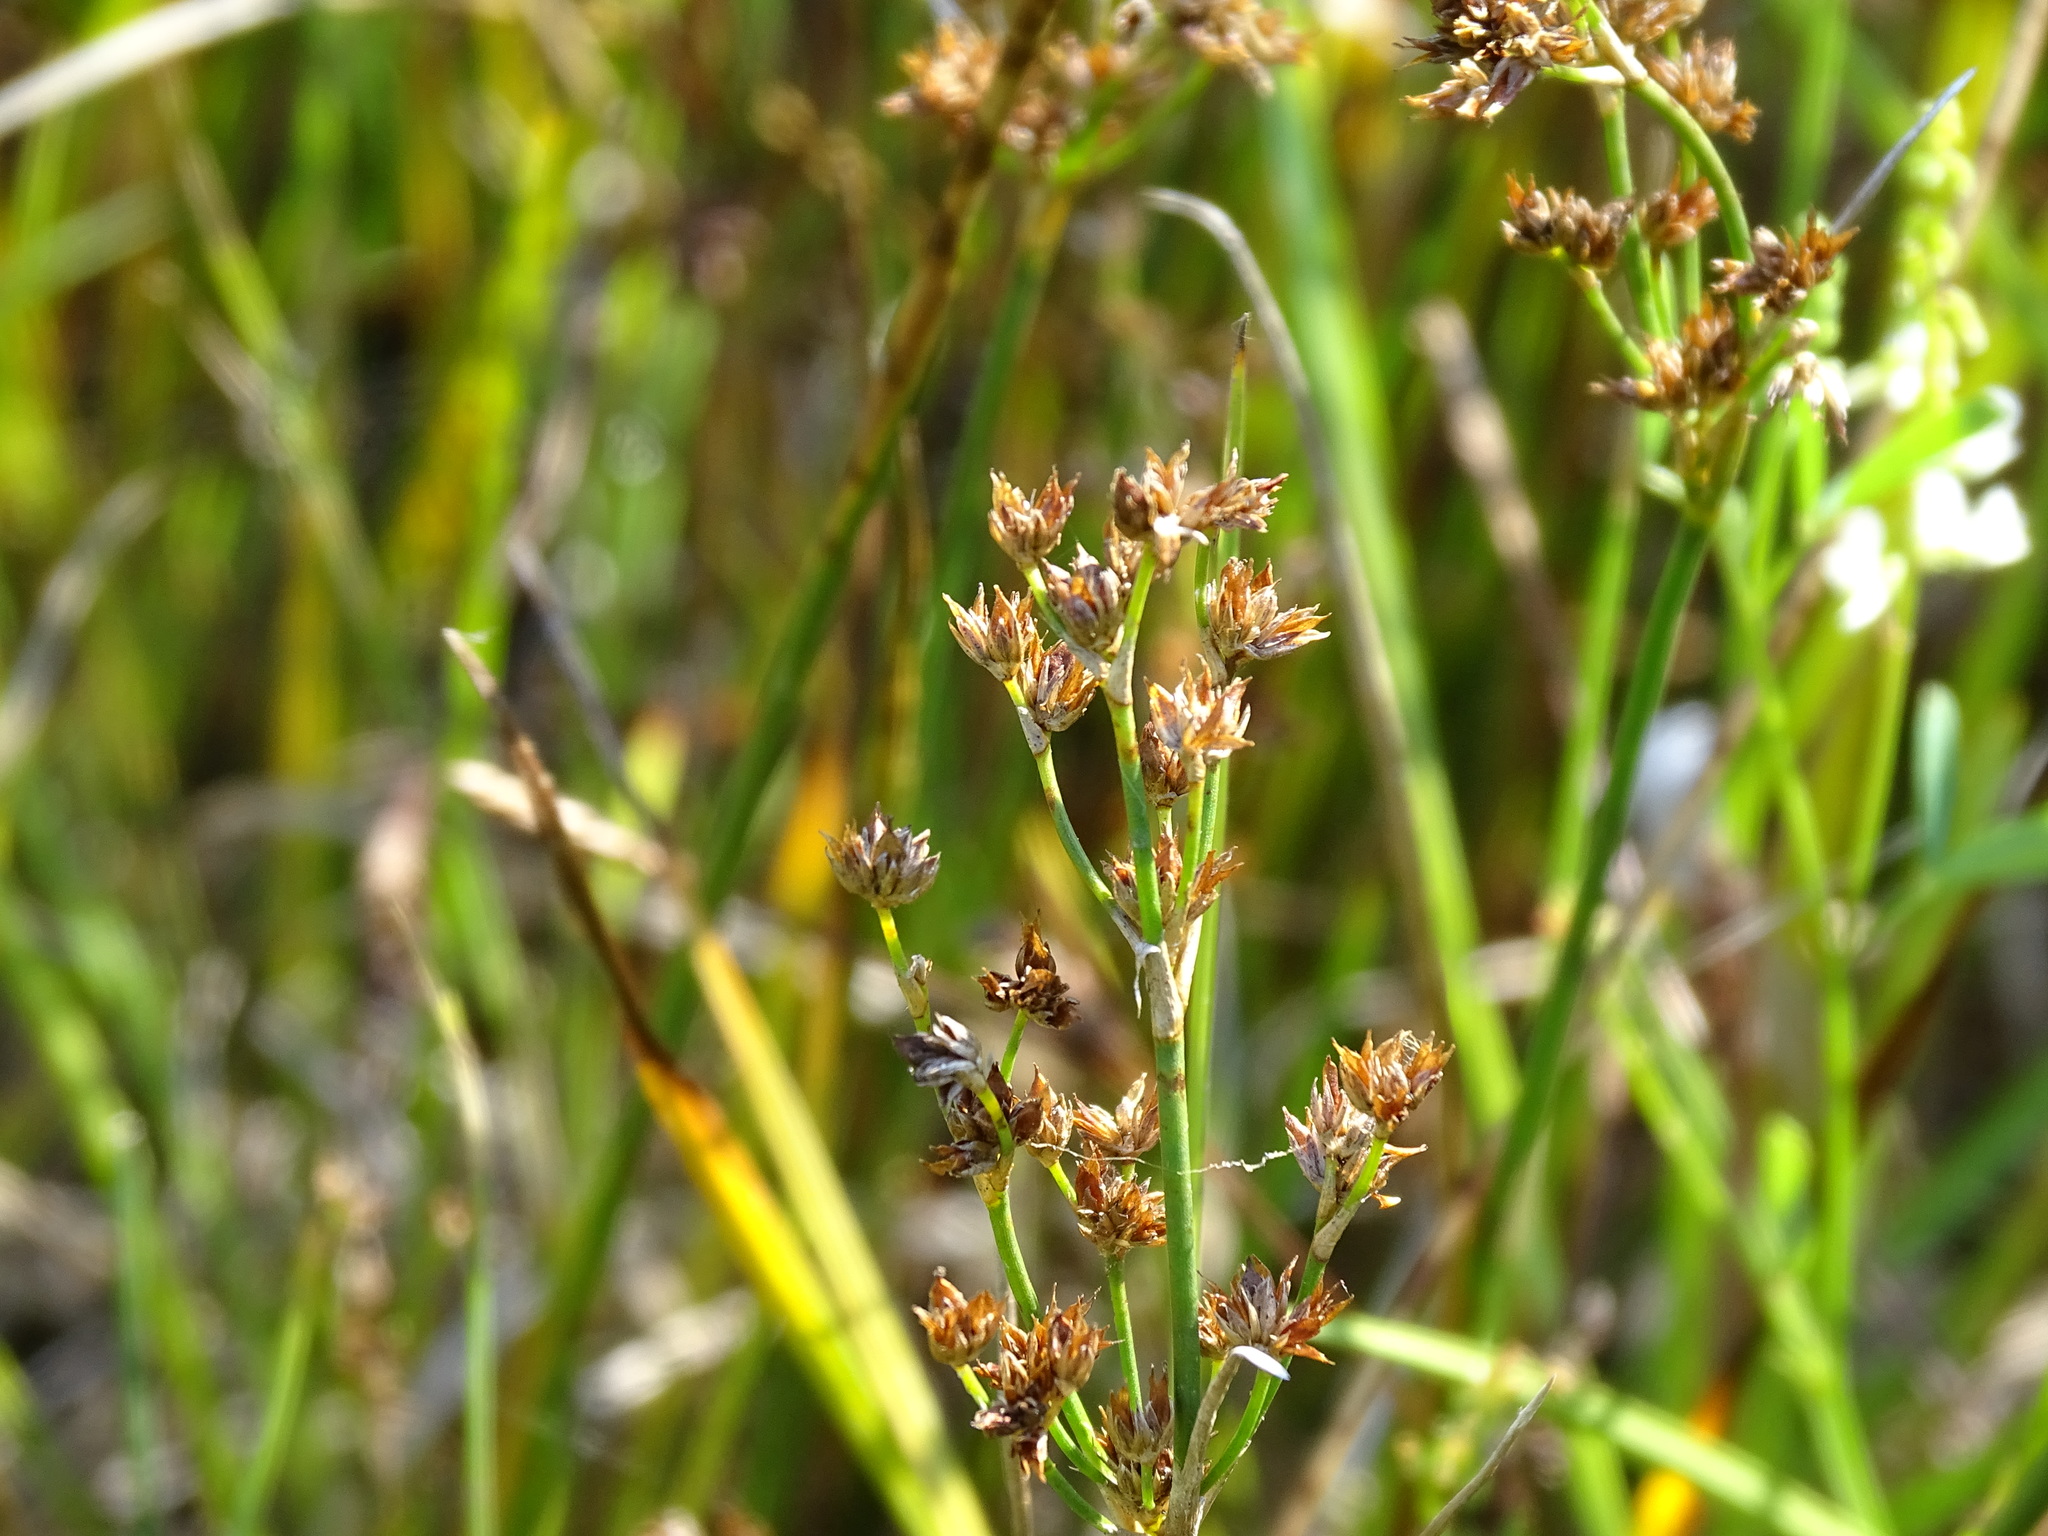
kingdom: Plantae
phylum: Tracheophyta
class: Liliopsida
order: Poales
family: Juncaceae
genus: Juncus
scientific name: Juncus articulatus
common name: Jointed rush
